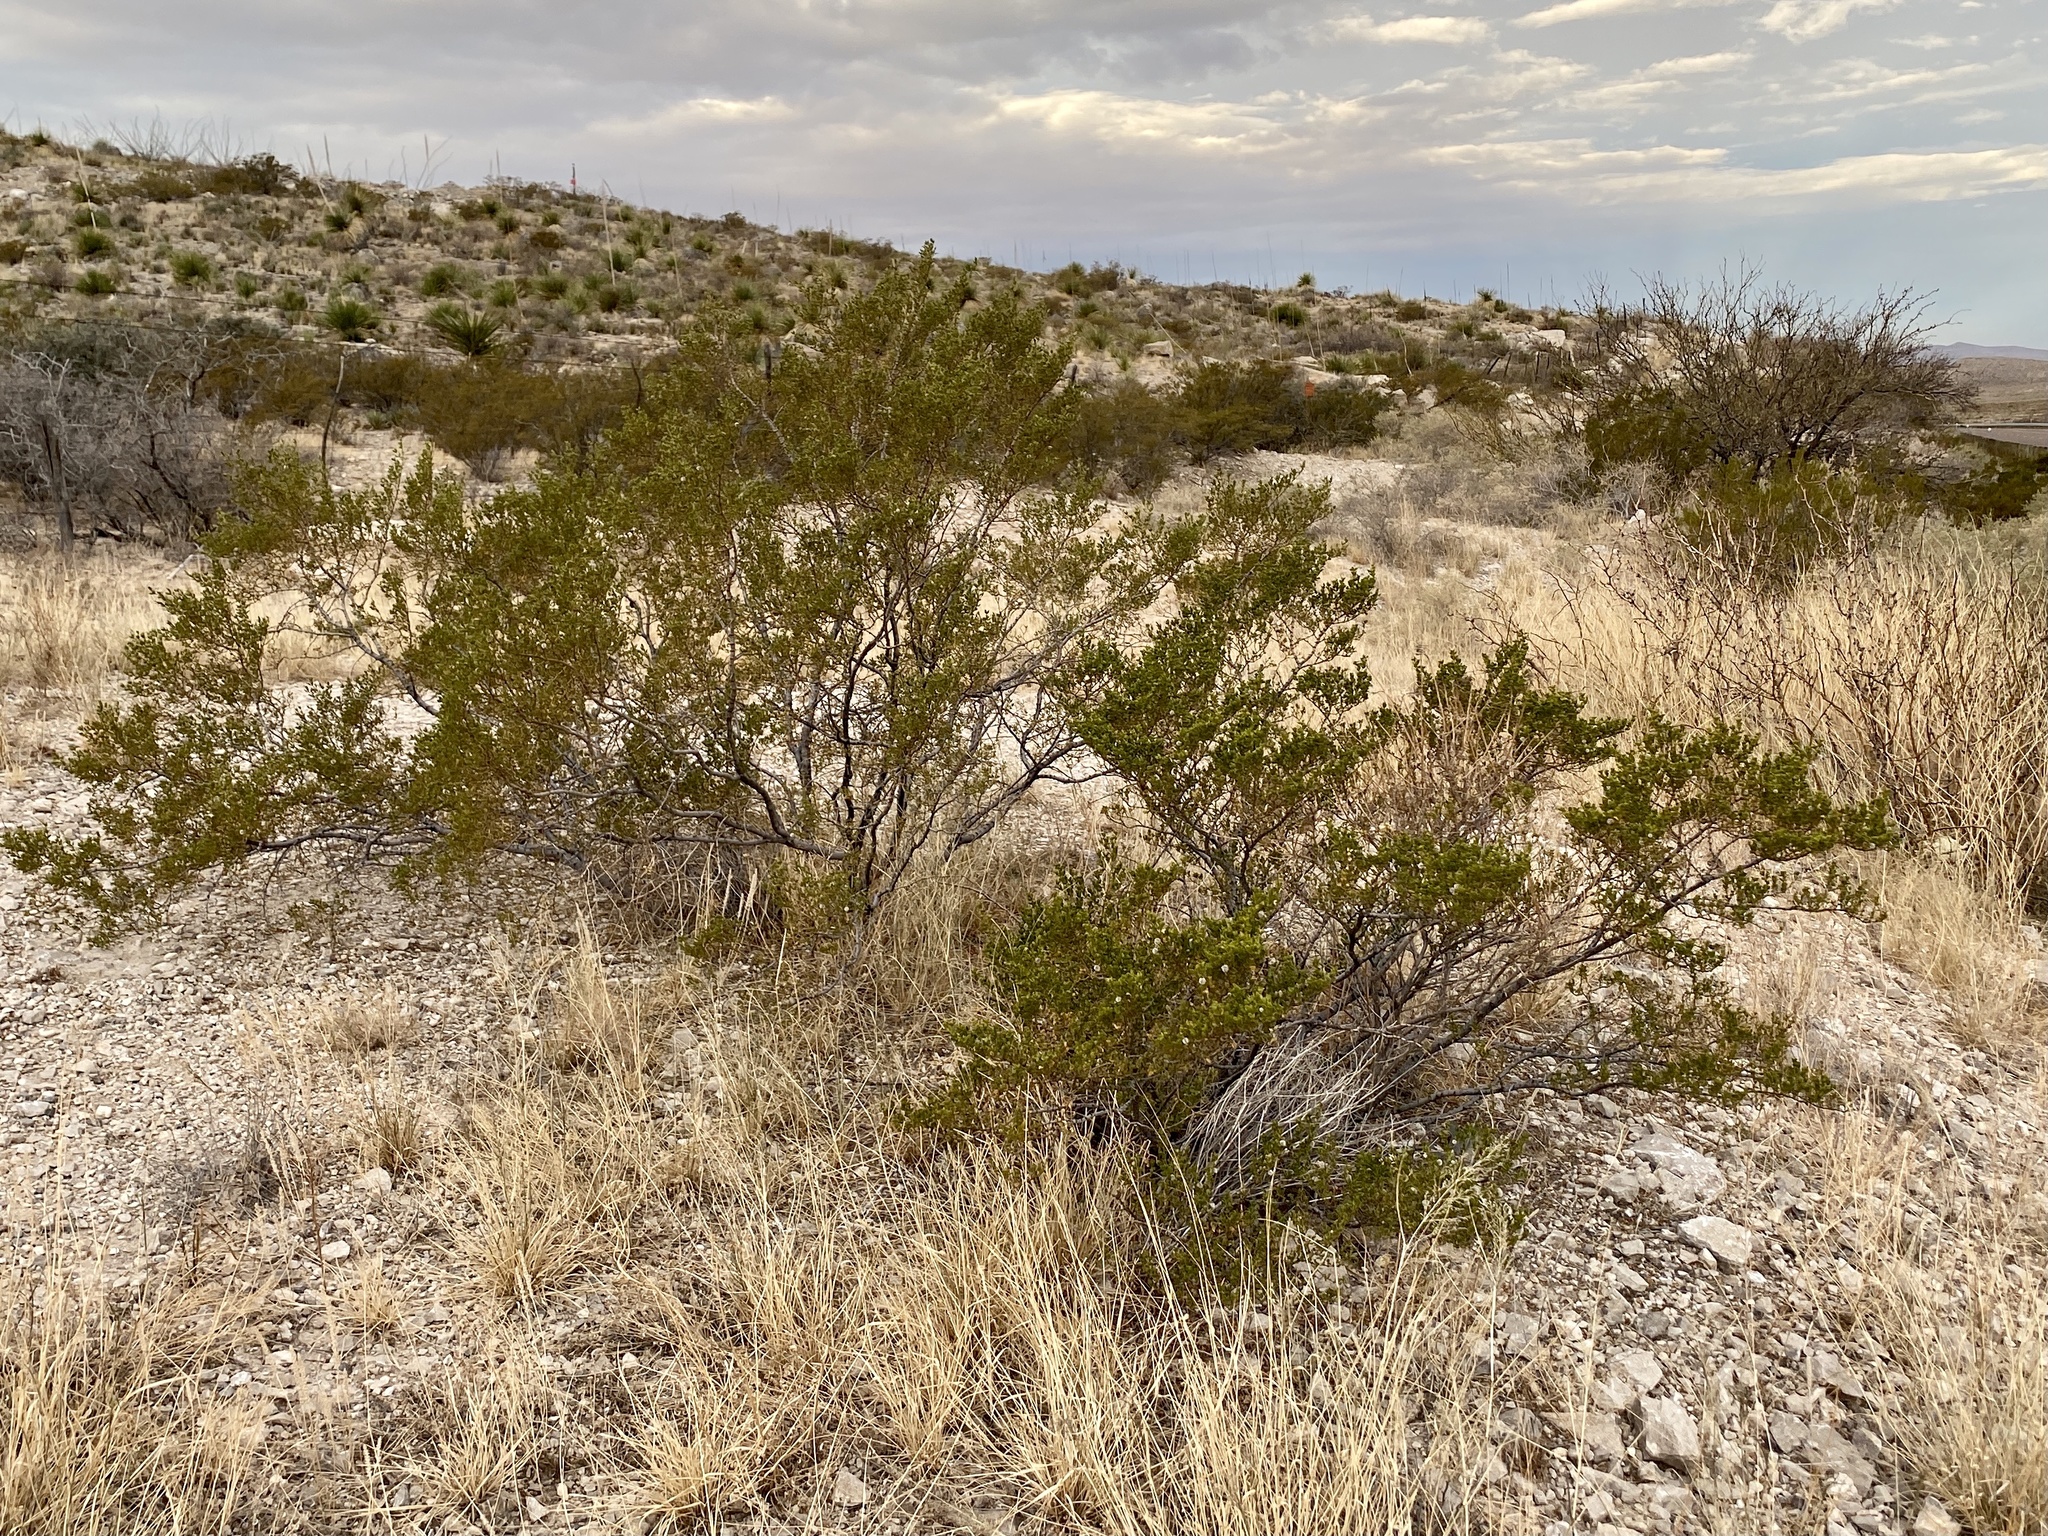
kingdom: Plantae
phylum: Tracheophyta
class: Magnoliopsida
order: Zygophyllales
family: Zygophyllaceae
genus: Larrea
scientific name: Larrea tridentata
